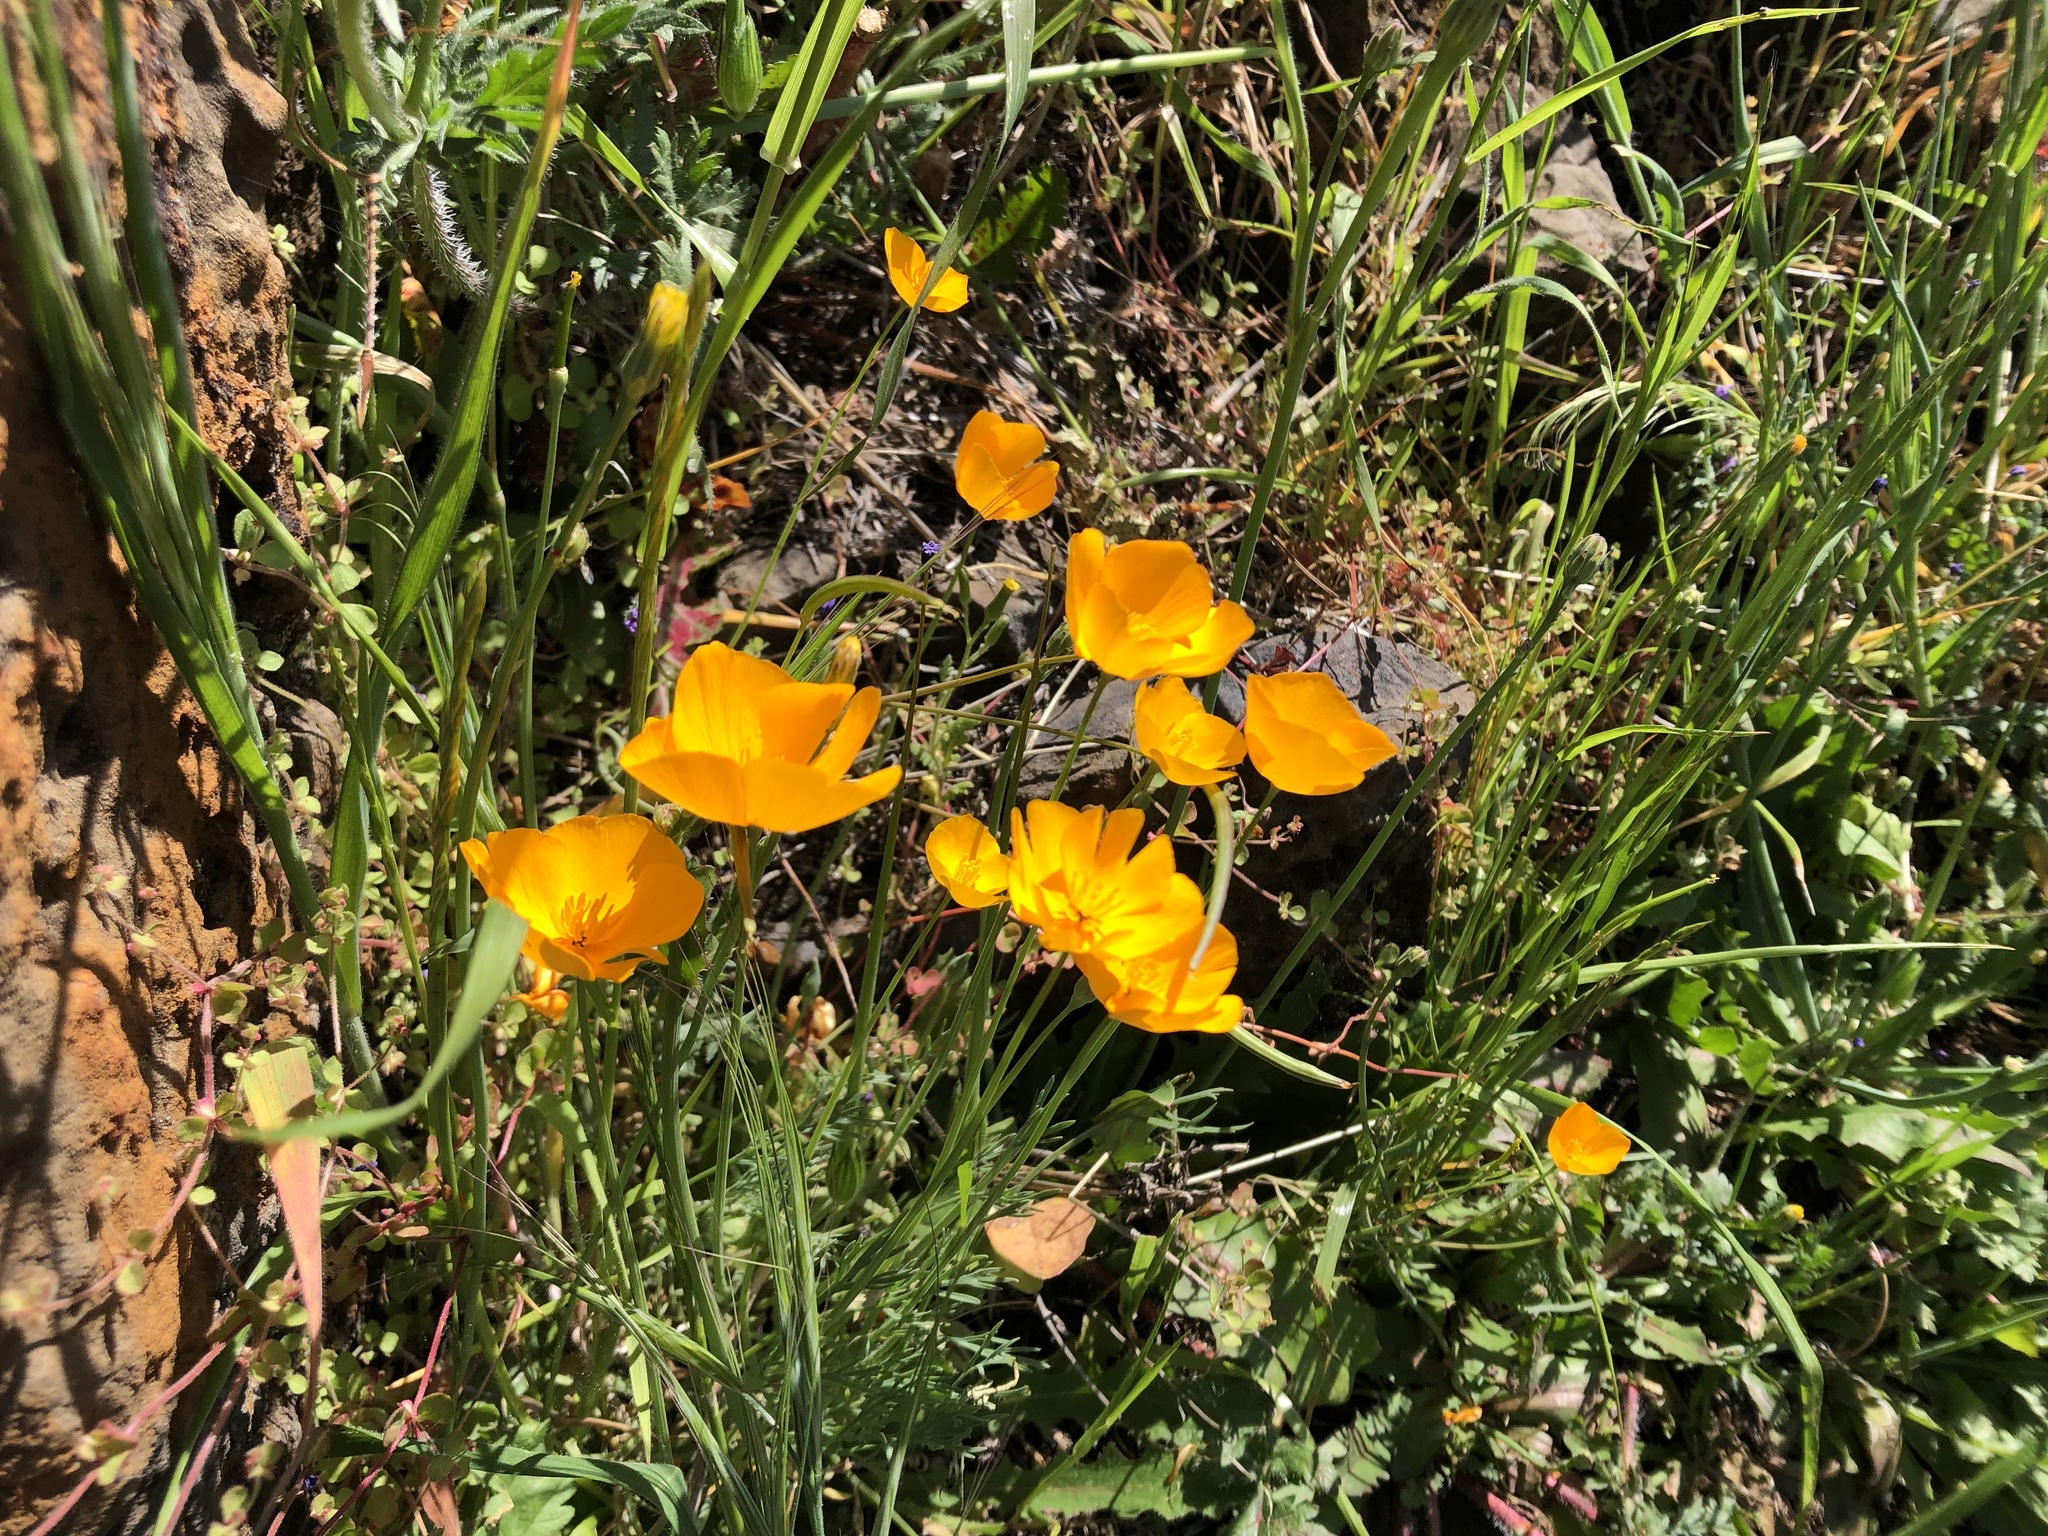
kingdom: Plantae
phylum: Tracheophyta
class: Magnoliopsida
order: Ranunculales
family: Papaveraceae
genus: Eschscholzia
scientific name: Eschscholzia lobbii
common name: Frying-pans
